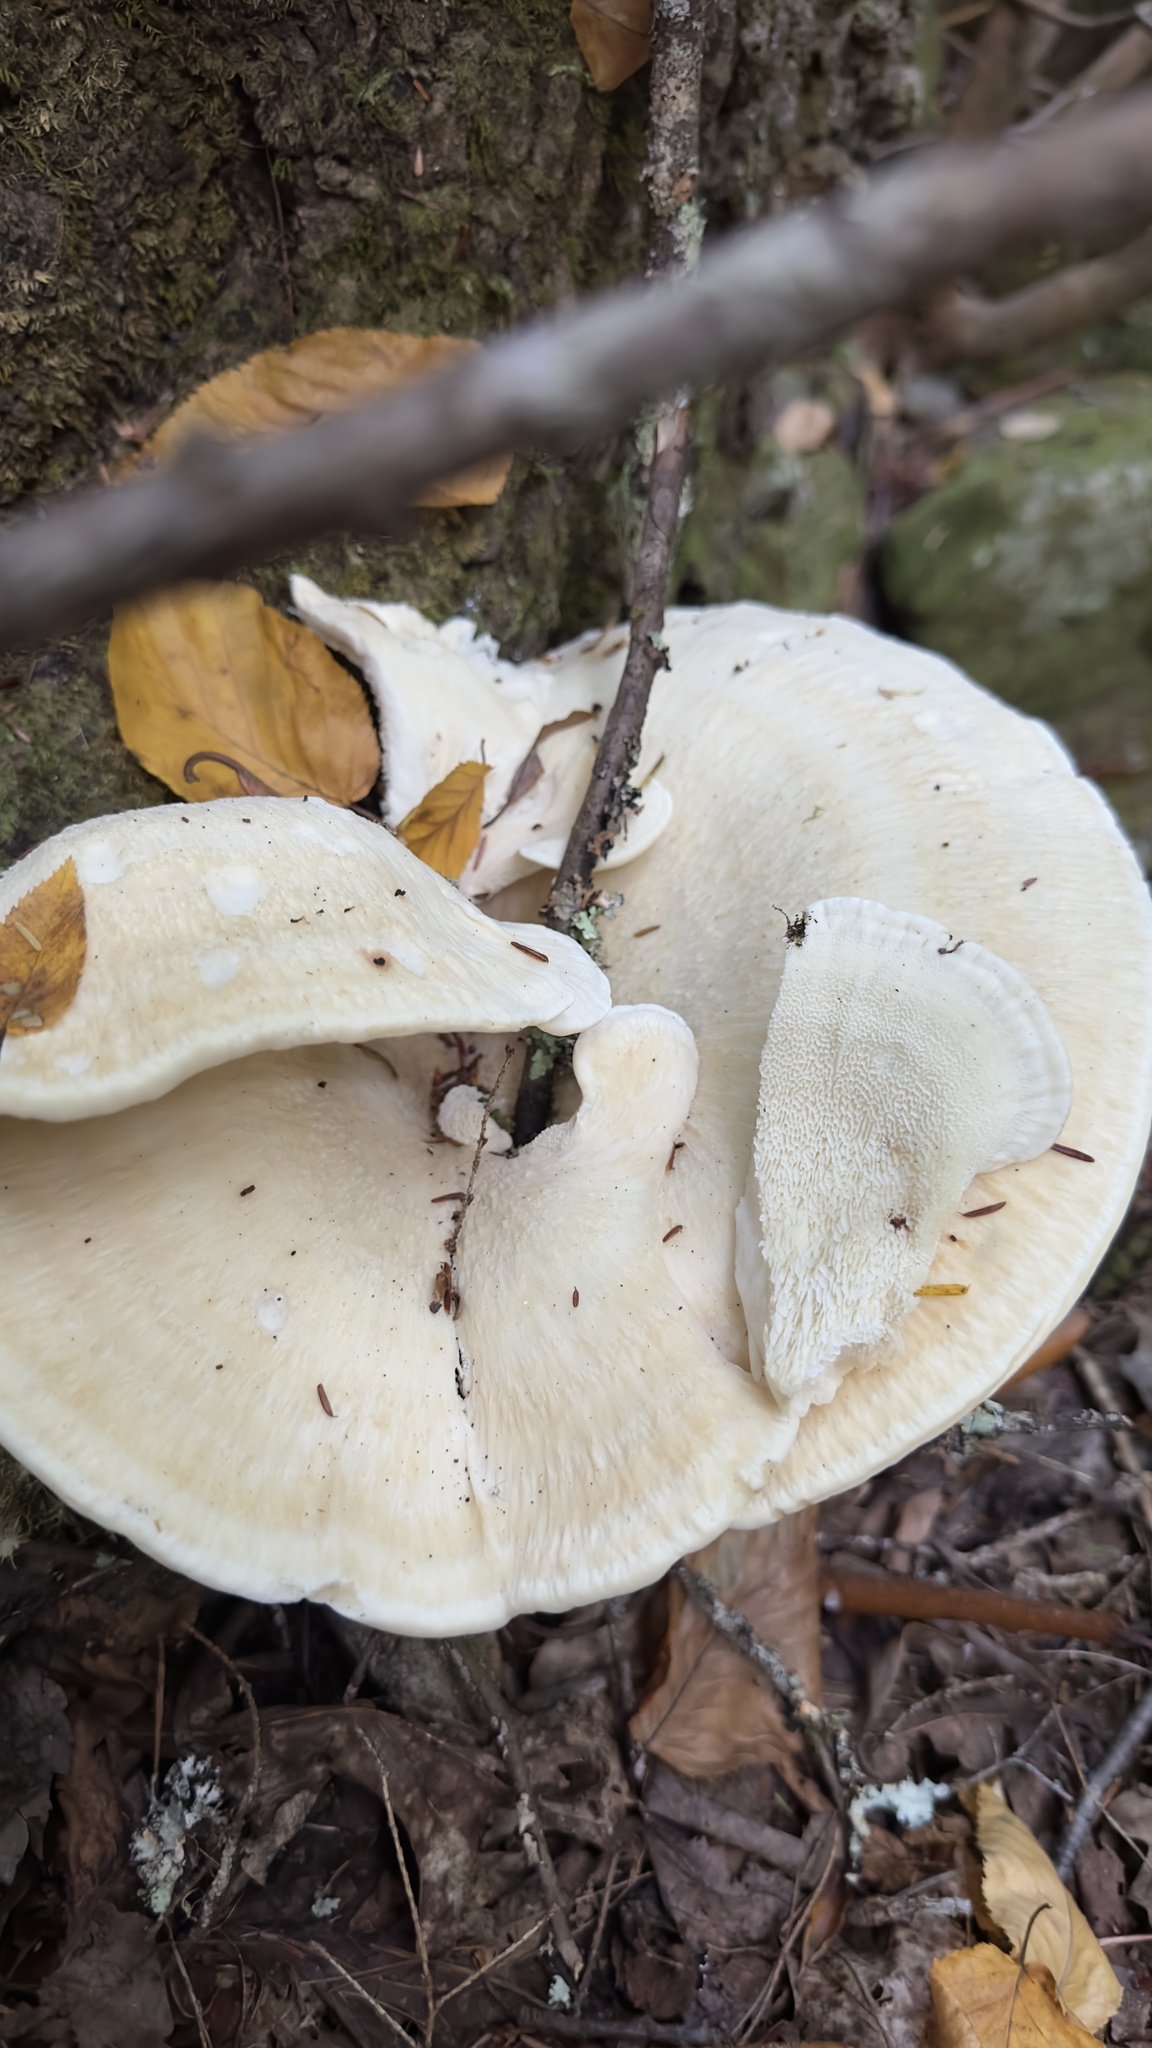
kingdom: Fungi
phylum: Basidiomycota
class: Agaricomycetes
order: Russulales
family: Bondarzewiaceae
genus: Bondarzewia
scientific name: Bondarzewia berkeleyi
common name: Berkeley's polypore
